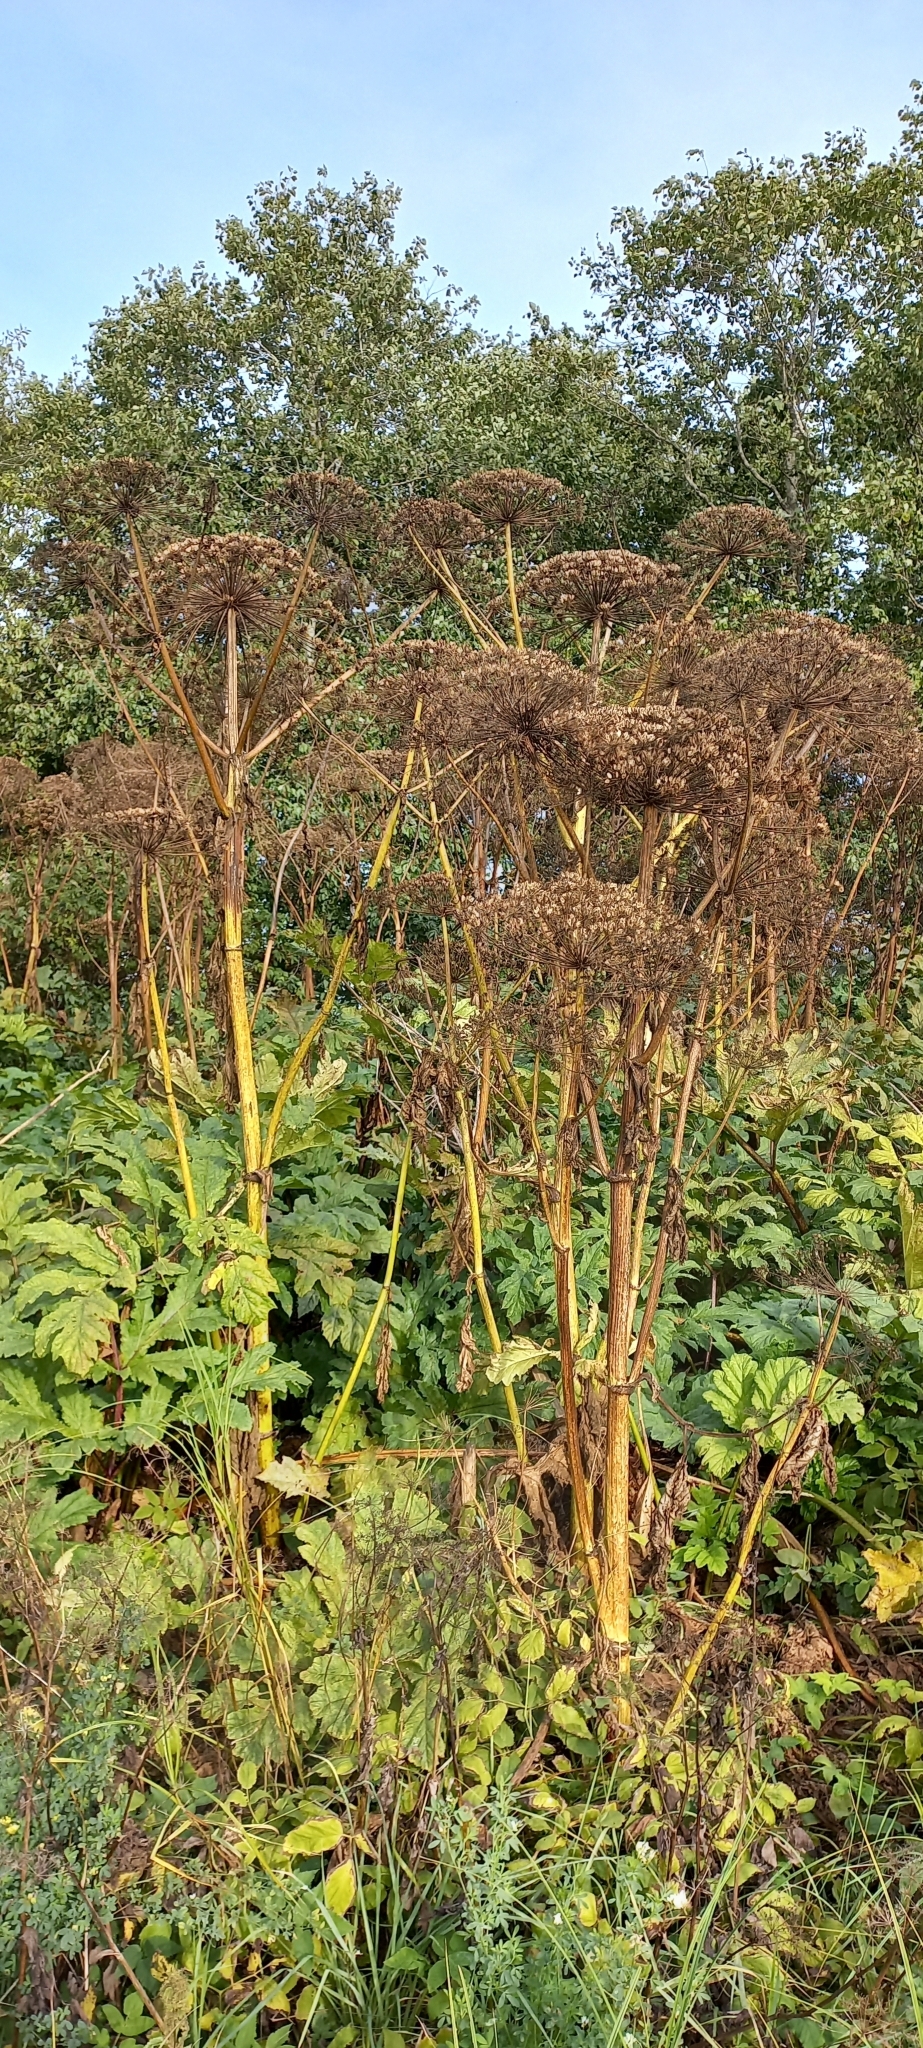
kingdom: Plantae
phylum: Tracheophyta
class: Magnoliopsida
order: Apiales
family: Apiaceae
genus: Heracleum
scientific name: Heracleum sosnowskyi
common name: Sosnowsky's hogweed
